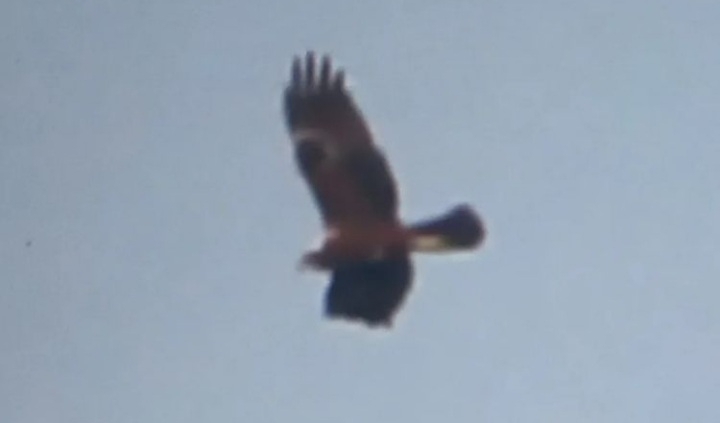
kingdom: Animalia
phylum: Chordata
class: Aves
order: Accipitriformes
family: Accipitridae
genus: Circus
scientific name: Circus aeruginosus
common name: Western marsh harrier
